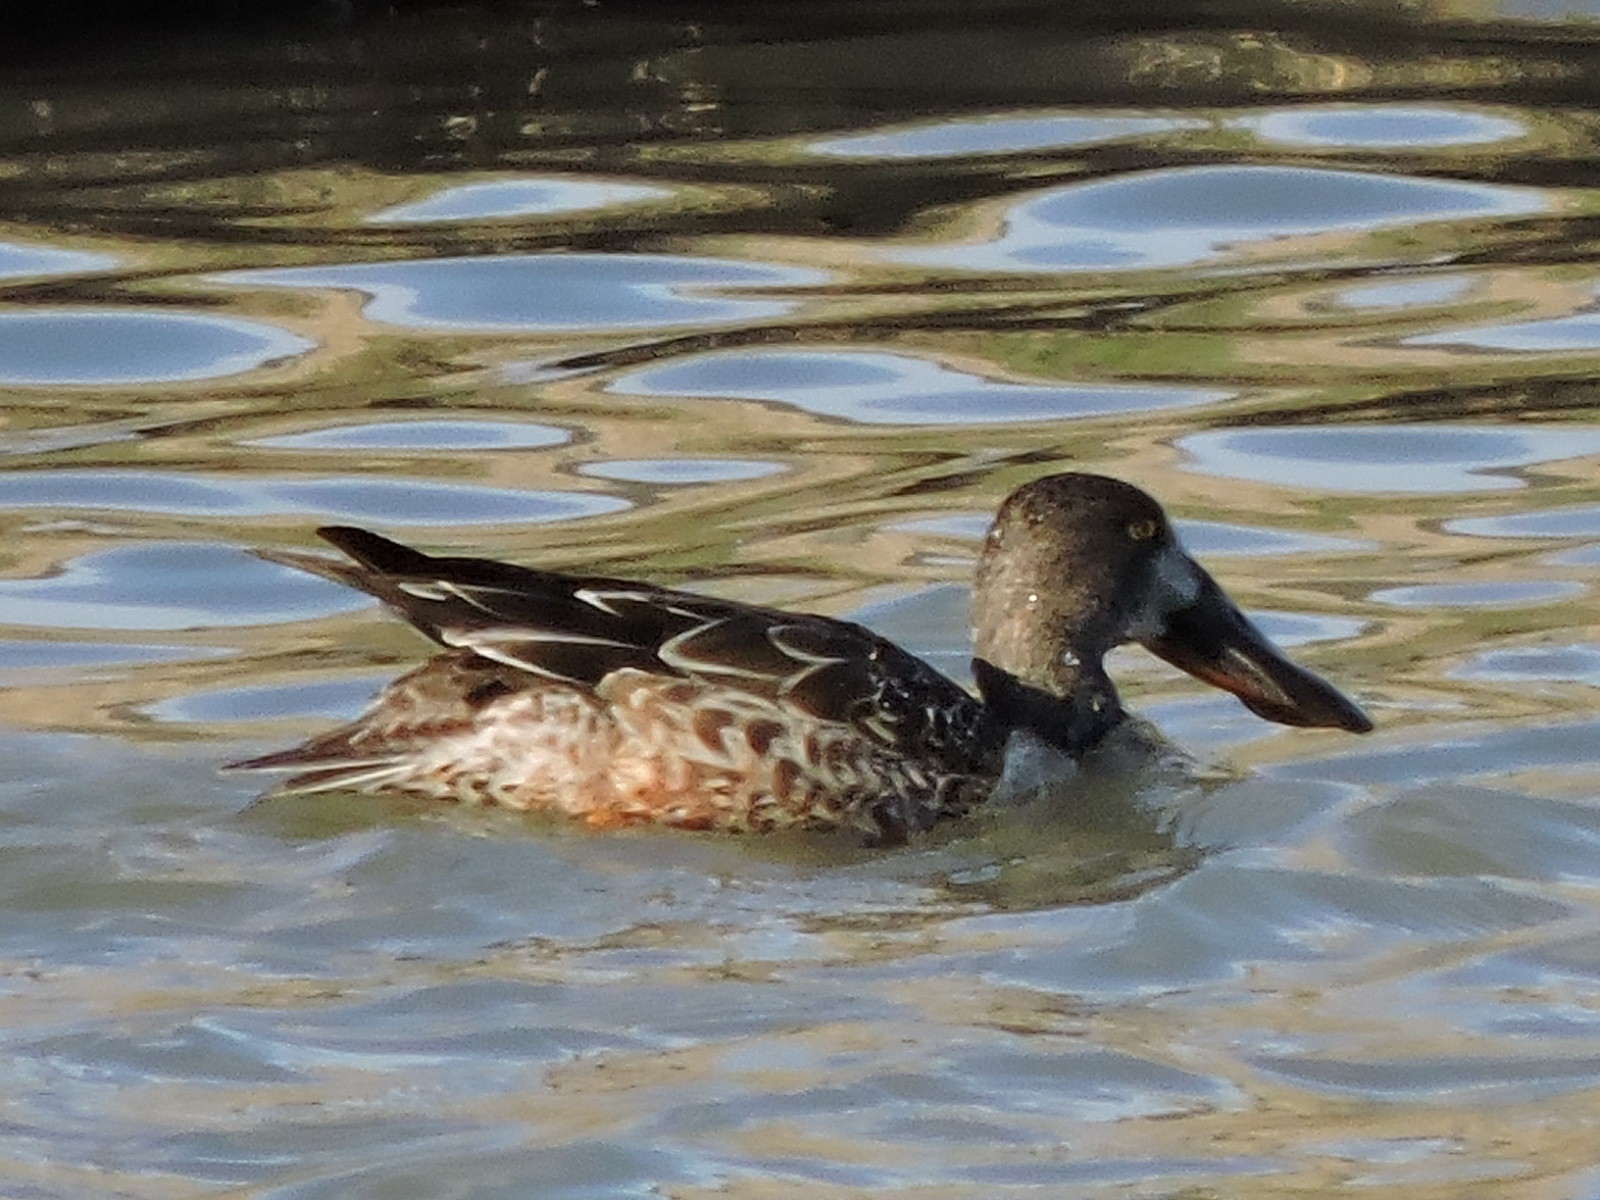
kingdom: Animalia
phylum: Chordata
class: Aves
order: Anseriformes
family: Anatidae
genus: Spatula
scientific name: Spatula clypeata
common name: Northern shoveler
